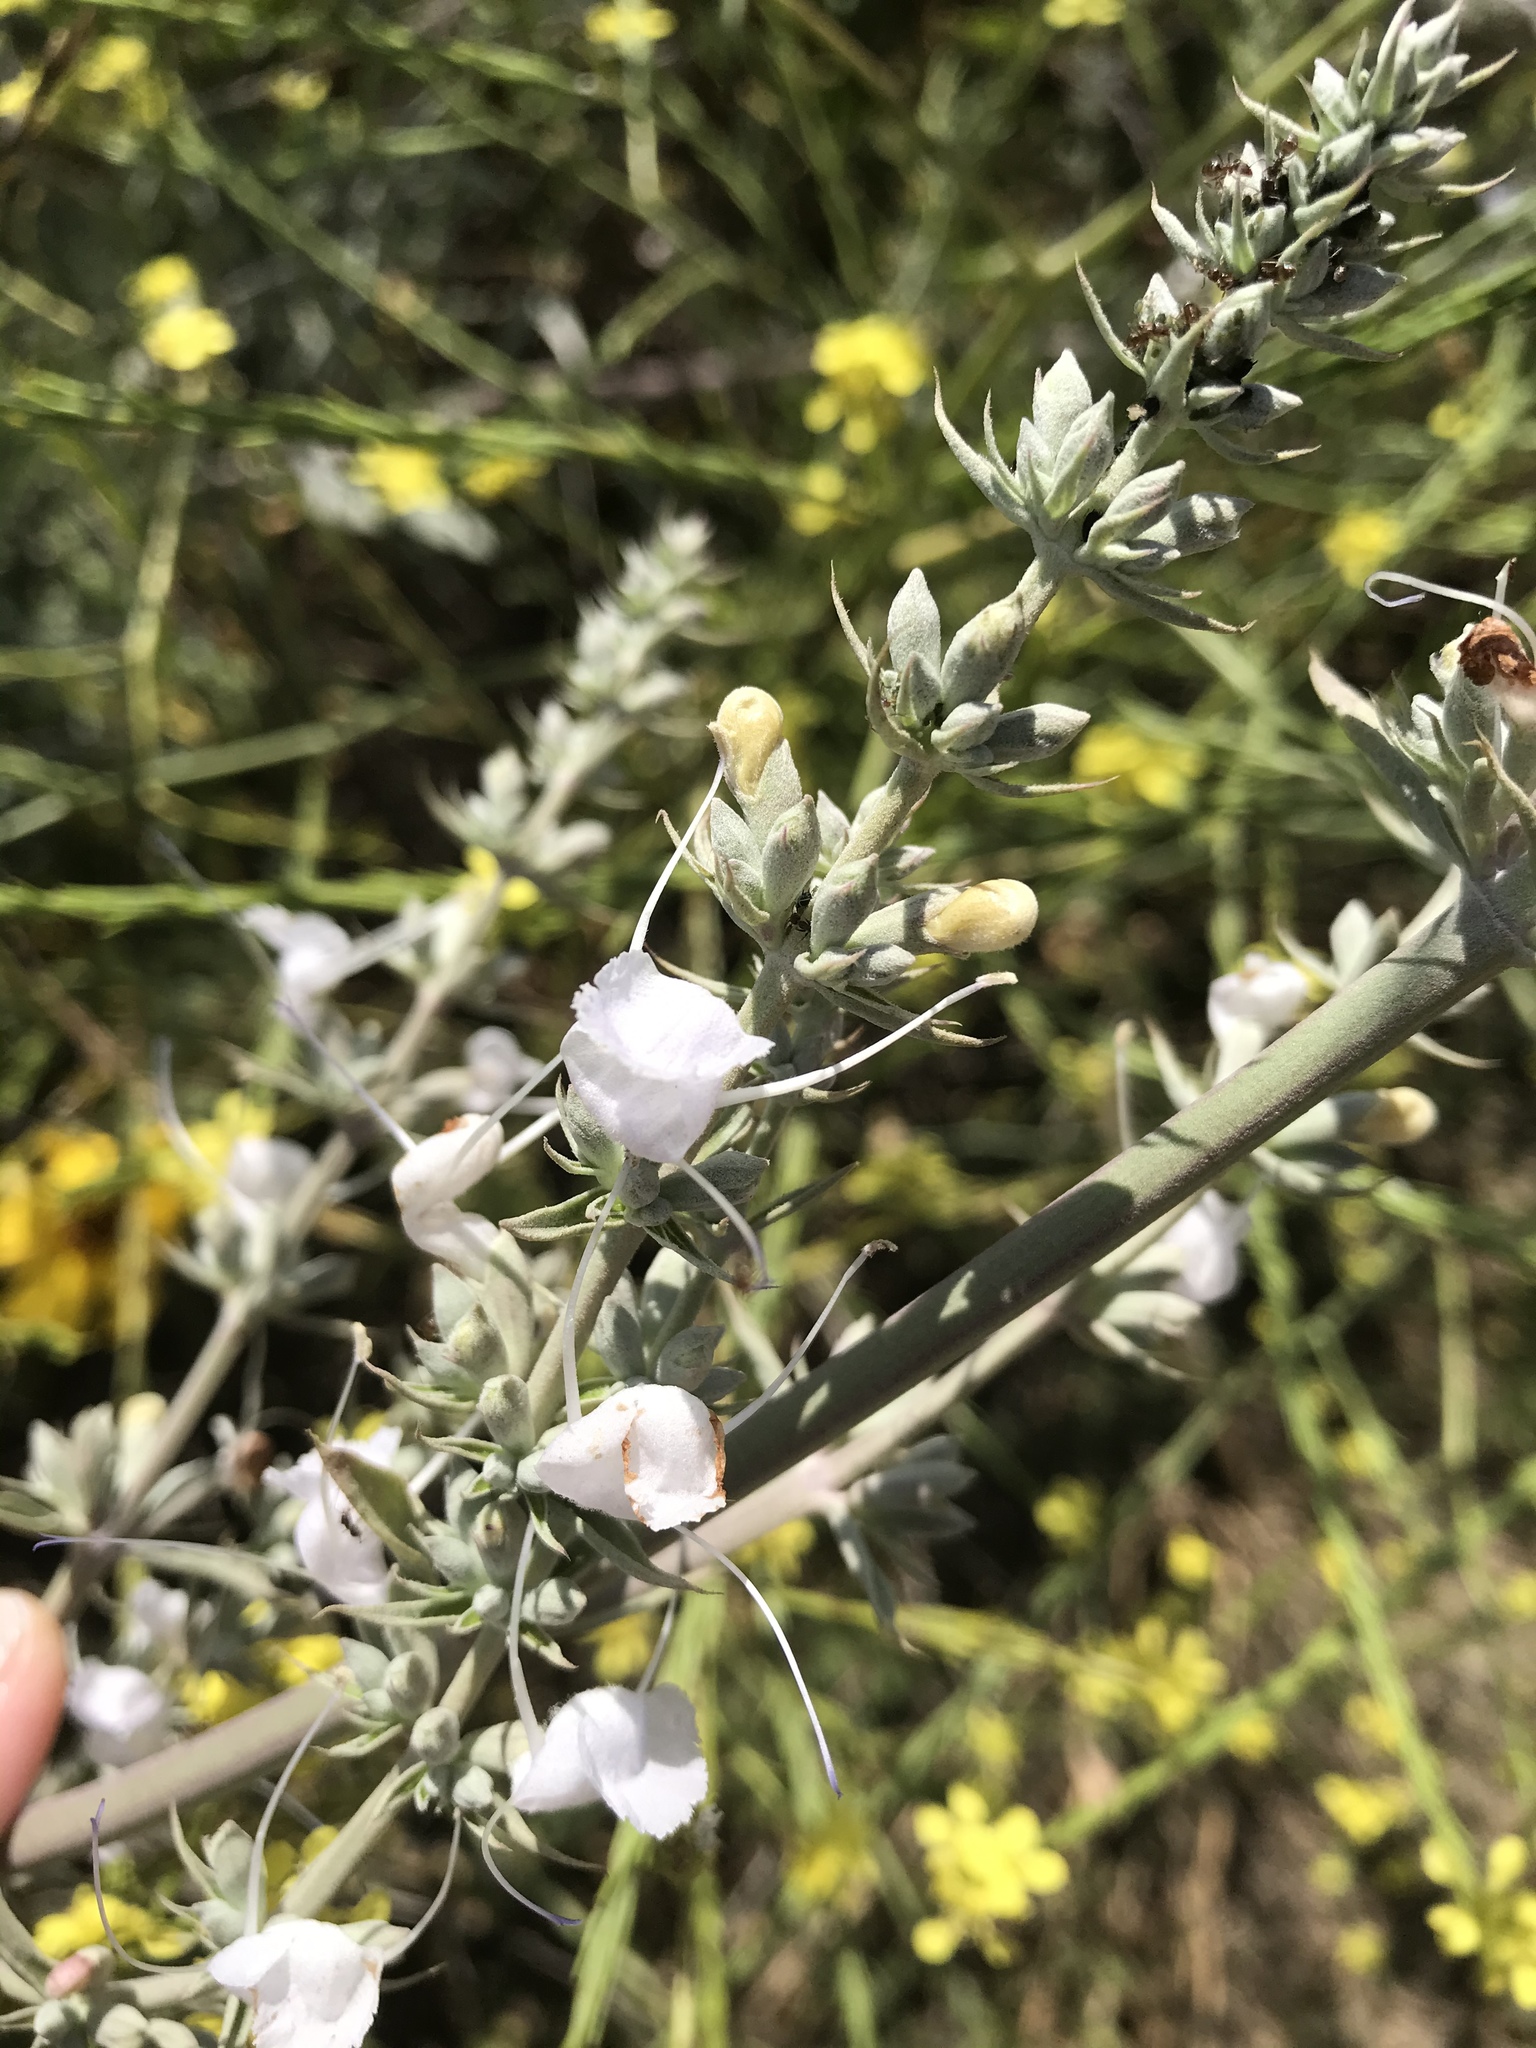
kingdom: Plantae
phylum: Tracheophyta
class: Magnoliopsida
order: Lamiales
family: Lamiaceae
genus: Salvia
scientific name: Salvia apiana
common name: White sage
